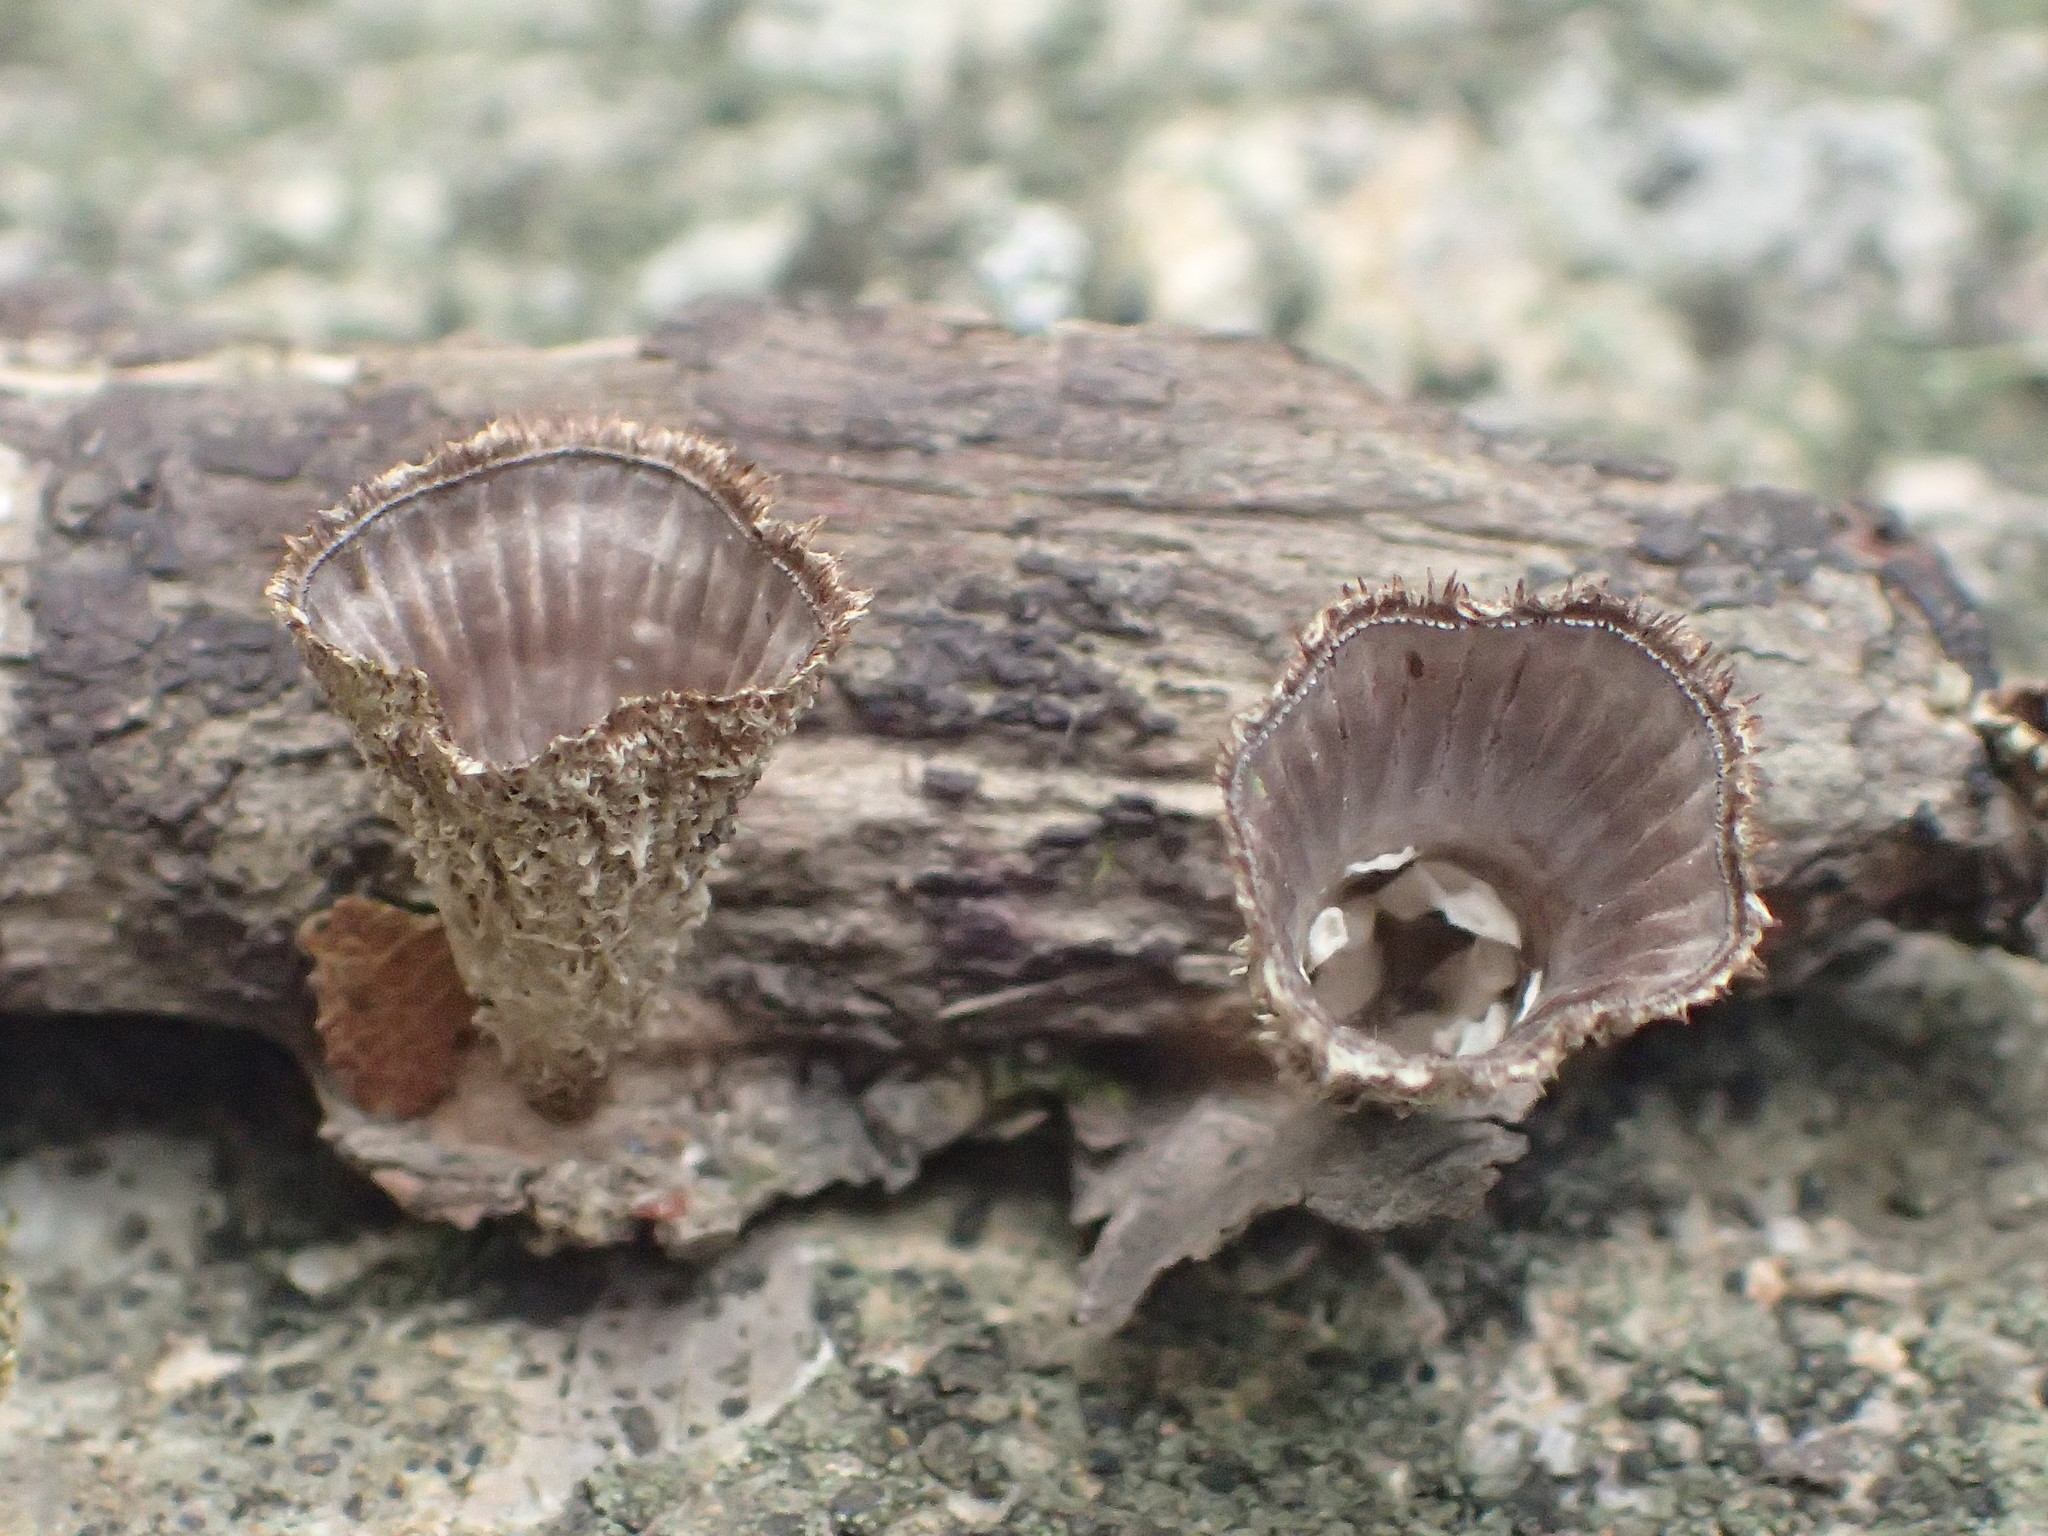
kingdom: Fungi
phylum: Basidiomycota
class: Agaricomycetes
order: Agaricales
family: Agaricaceae
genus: Cyathus
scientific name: Cyathus striatus
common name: Fluted bird's nest
